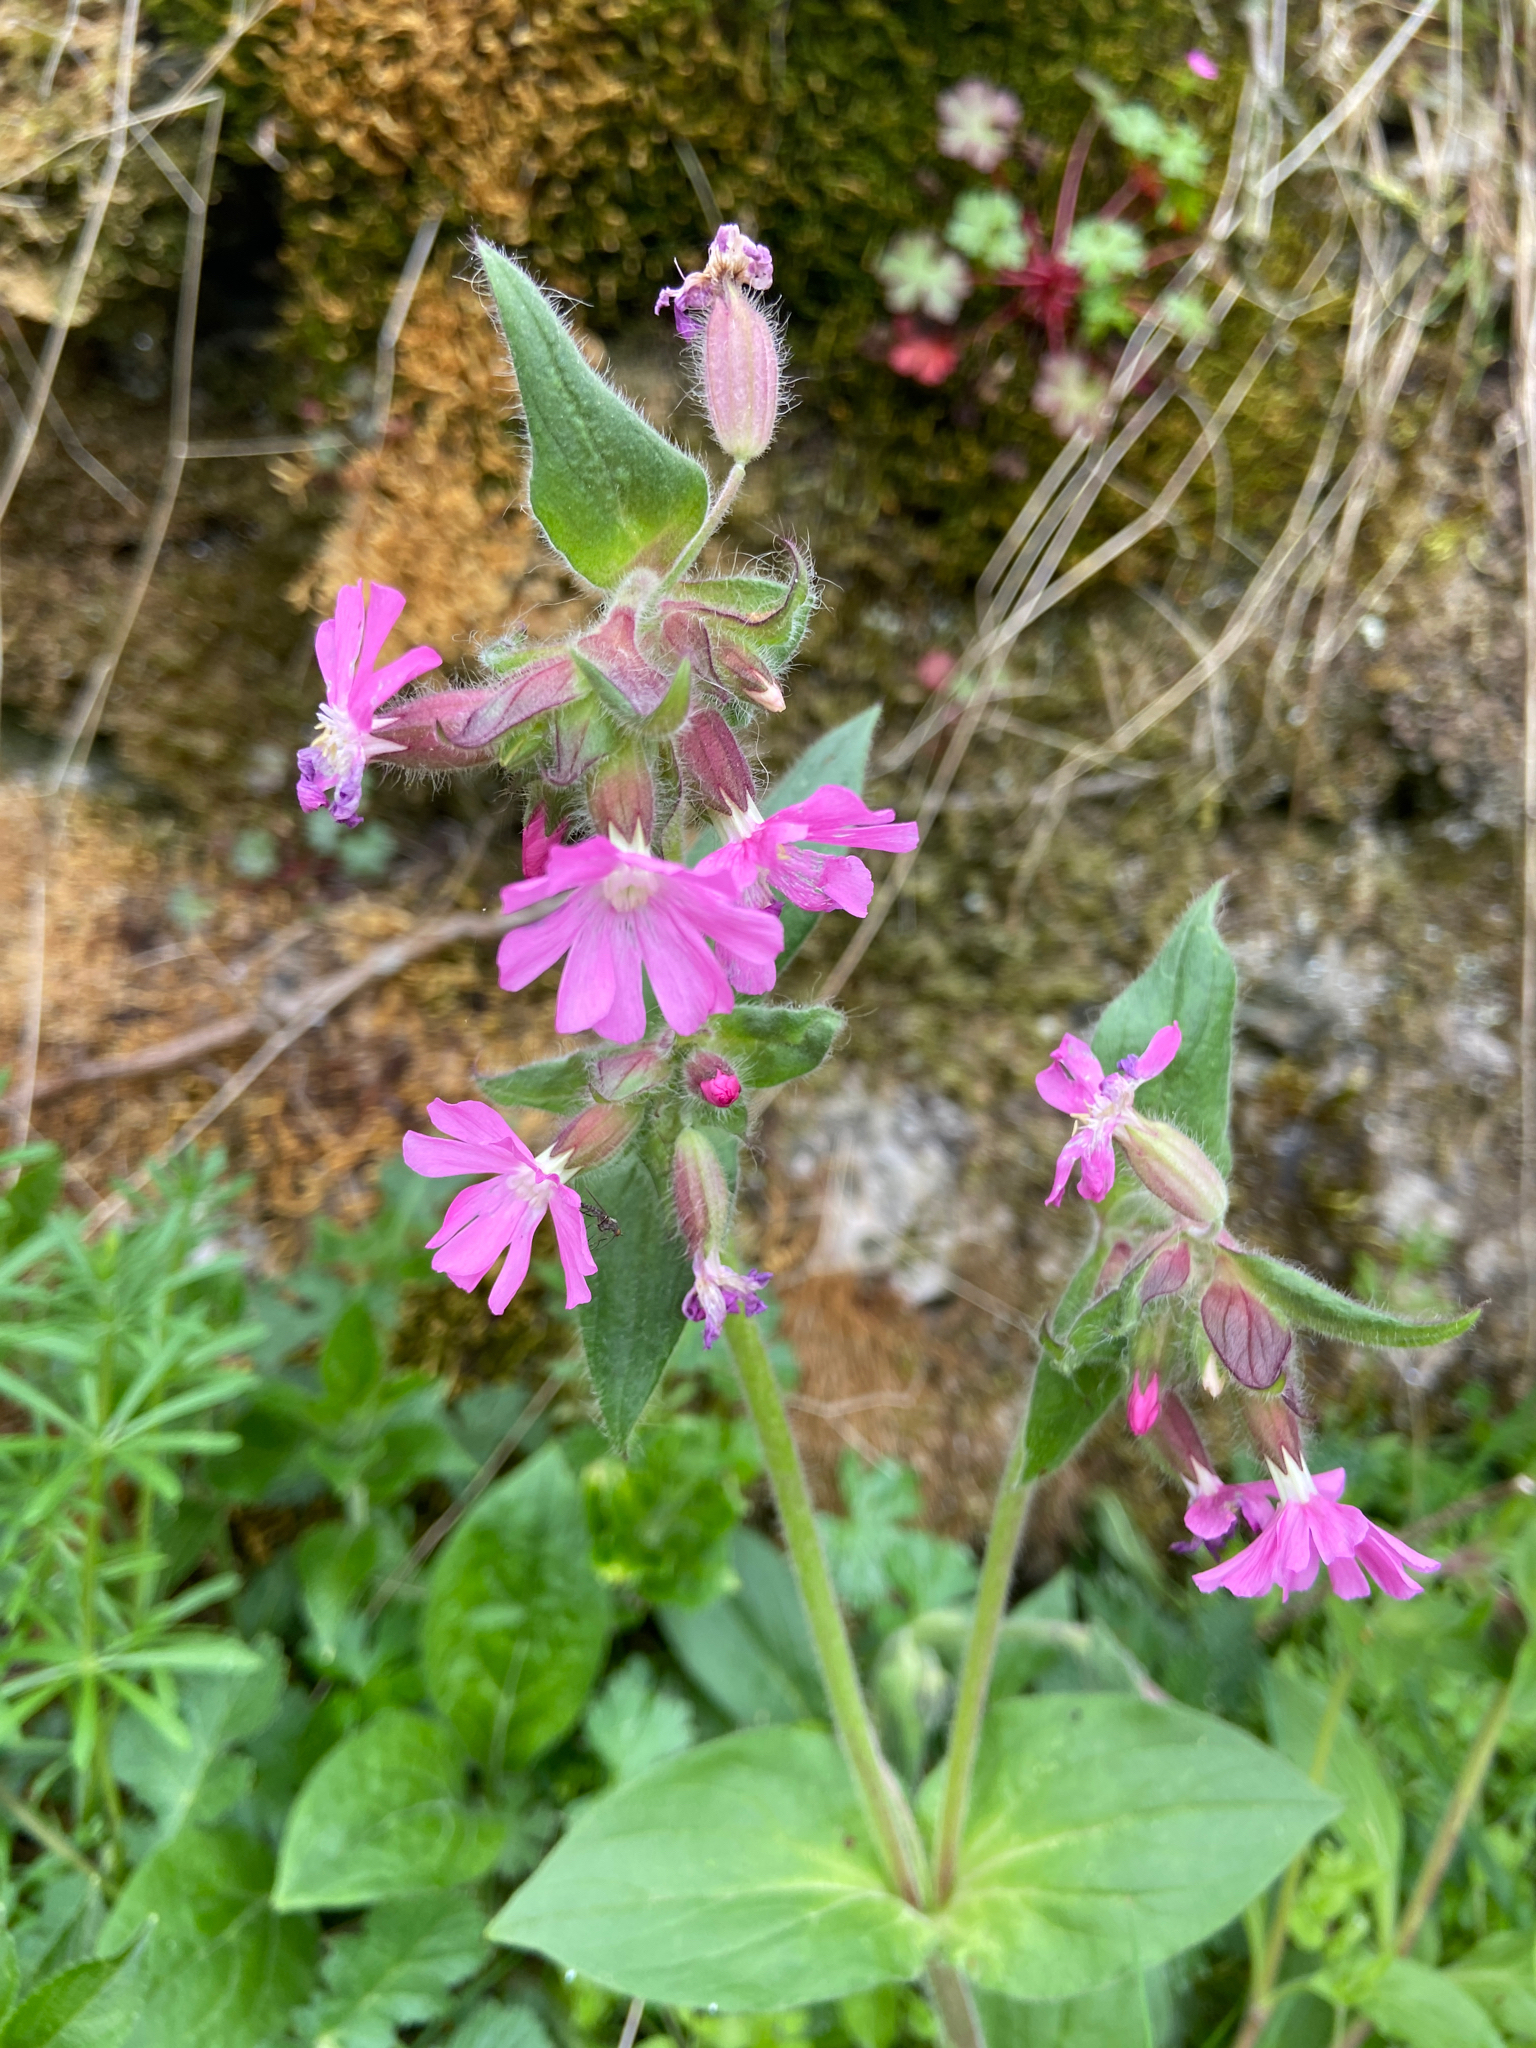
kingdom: Plantae
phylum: Tracheophyta
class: Magnoliopsida
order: Caryophyllales
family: Caryophyllaceae
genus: Silene
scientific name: Silene dioica
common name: Red campion
